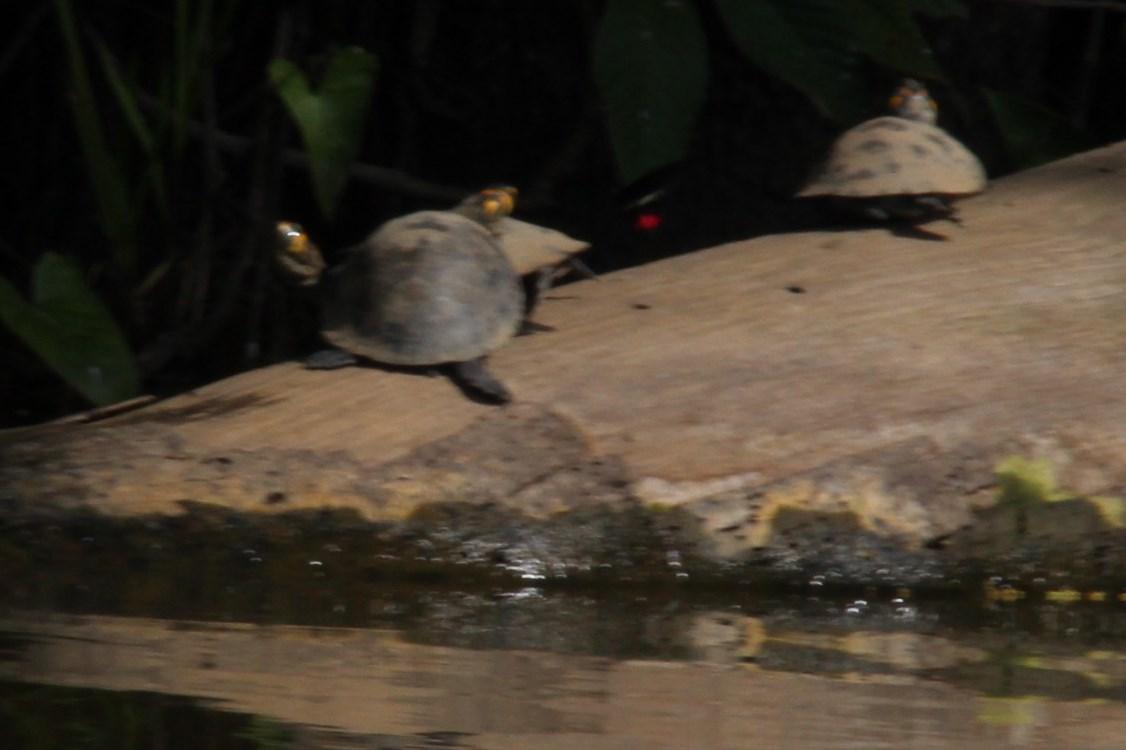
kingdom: Animalia
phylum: Chordata
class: Testudines
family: Podocnemididae
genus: Podocnemis
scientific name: Podocnemis unifilis
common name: Yellow-spotted amazon river turtle
